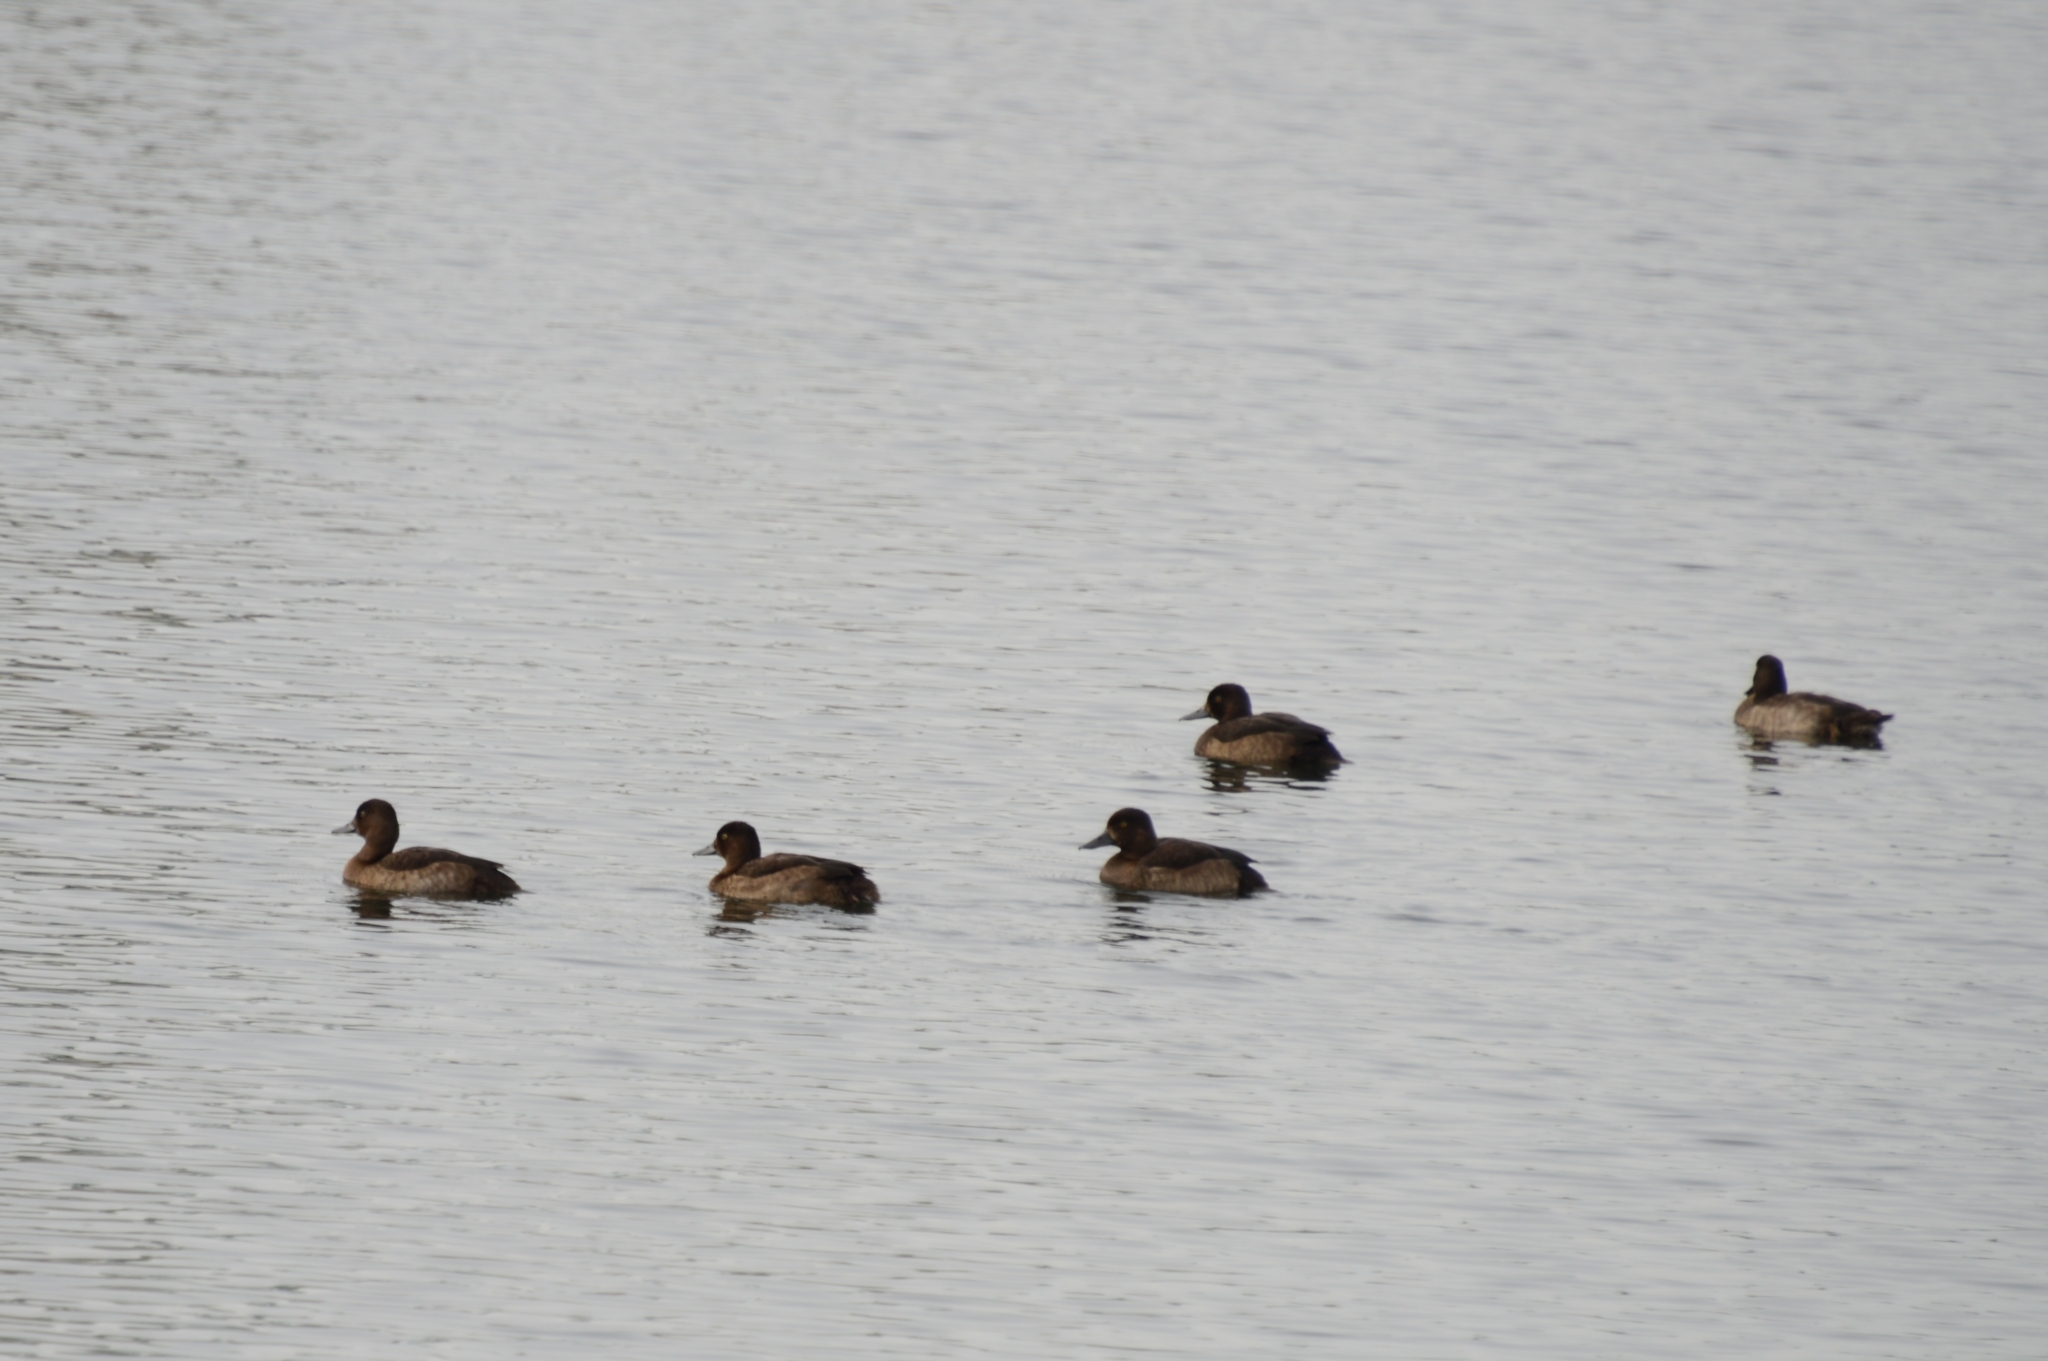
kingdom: Animalia
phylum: Chordata
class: Aves
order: Anseriformes
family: Anatidae
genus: Aythya
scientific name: Aythya fuligula
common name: Tufted duck
